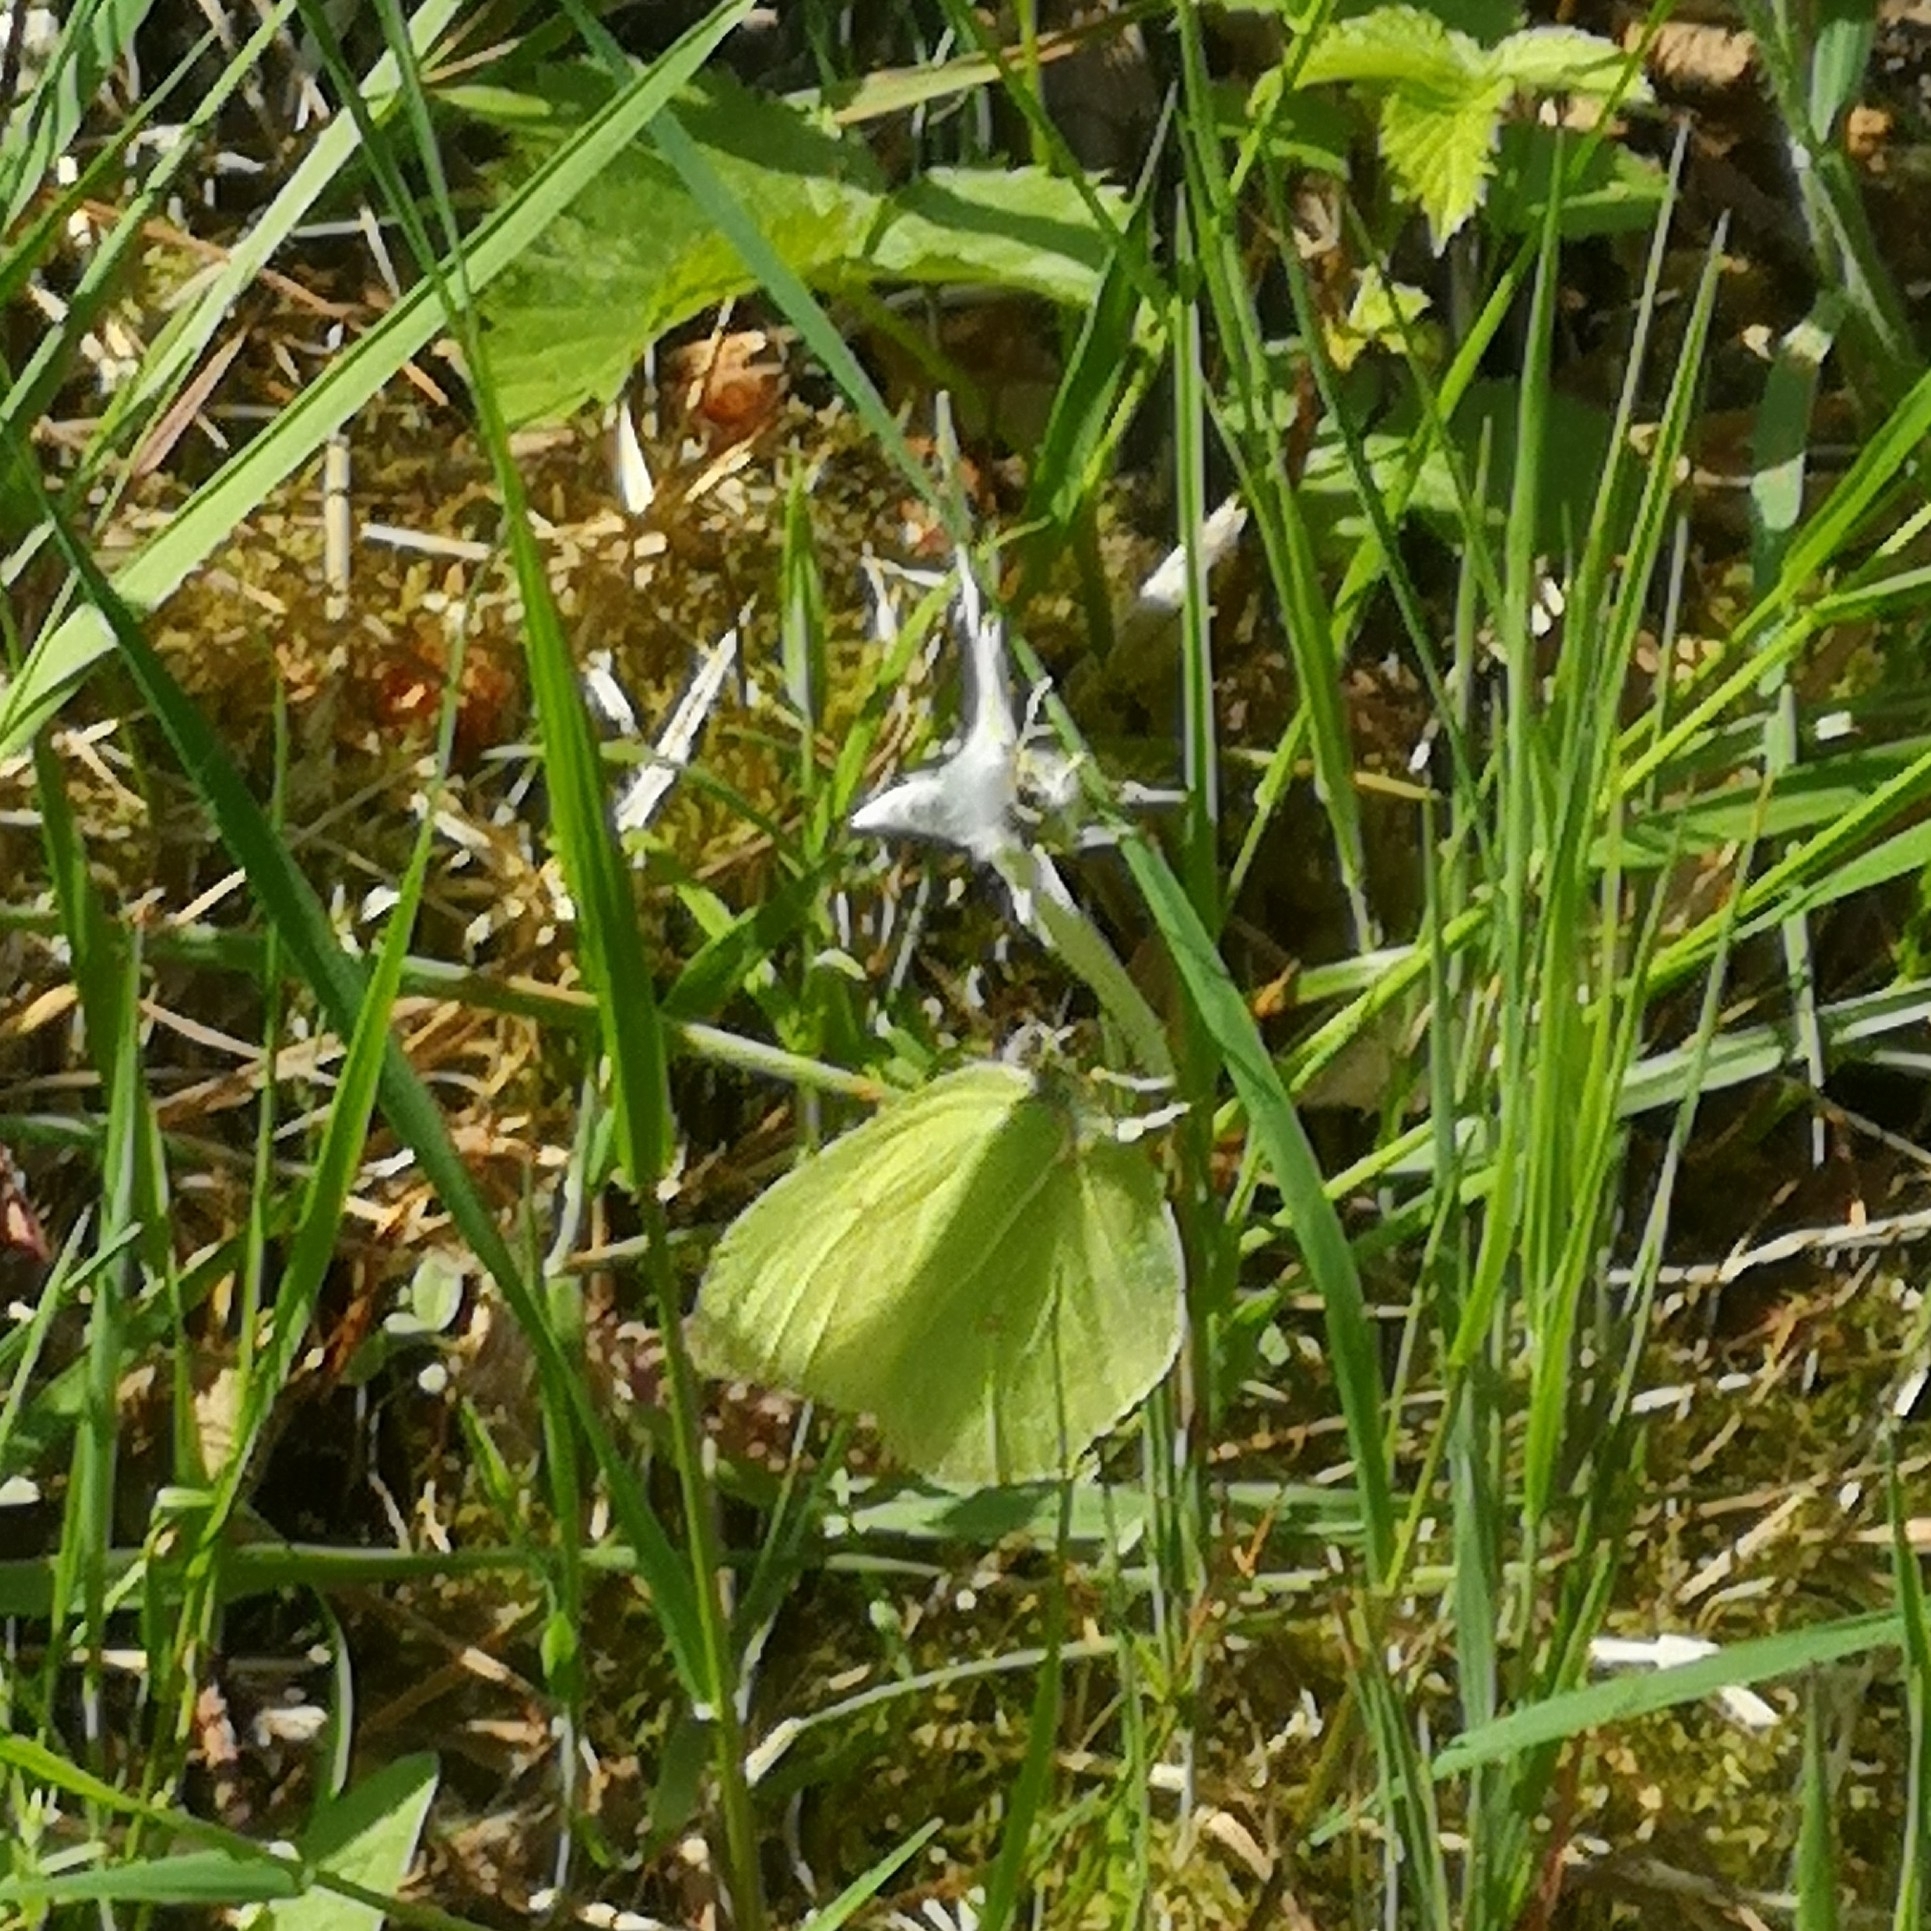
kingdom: Animalia
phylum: Arthropoda
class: Insecta
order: Lepidoptera
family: Pieridae
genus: Gonepteryx
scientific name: Gonepteryx rhamni
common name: Brimstone
